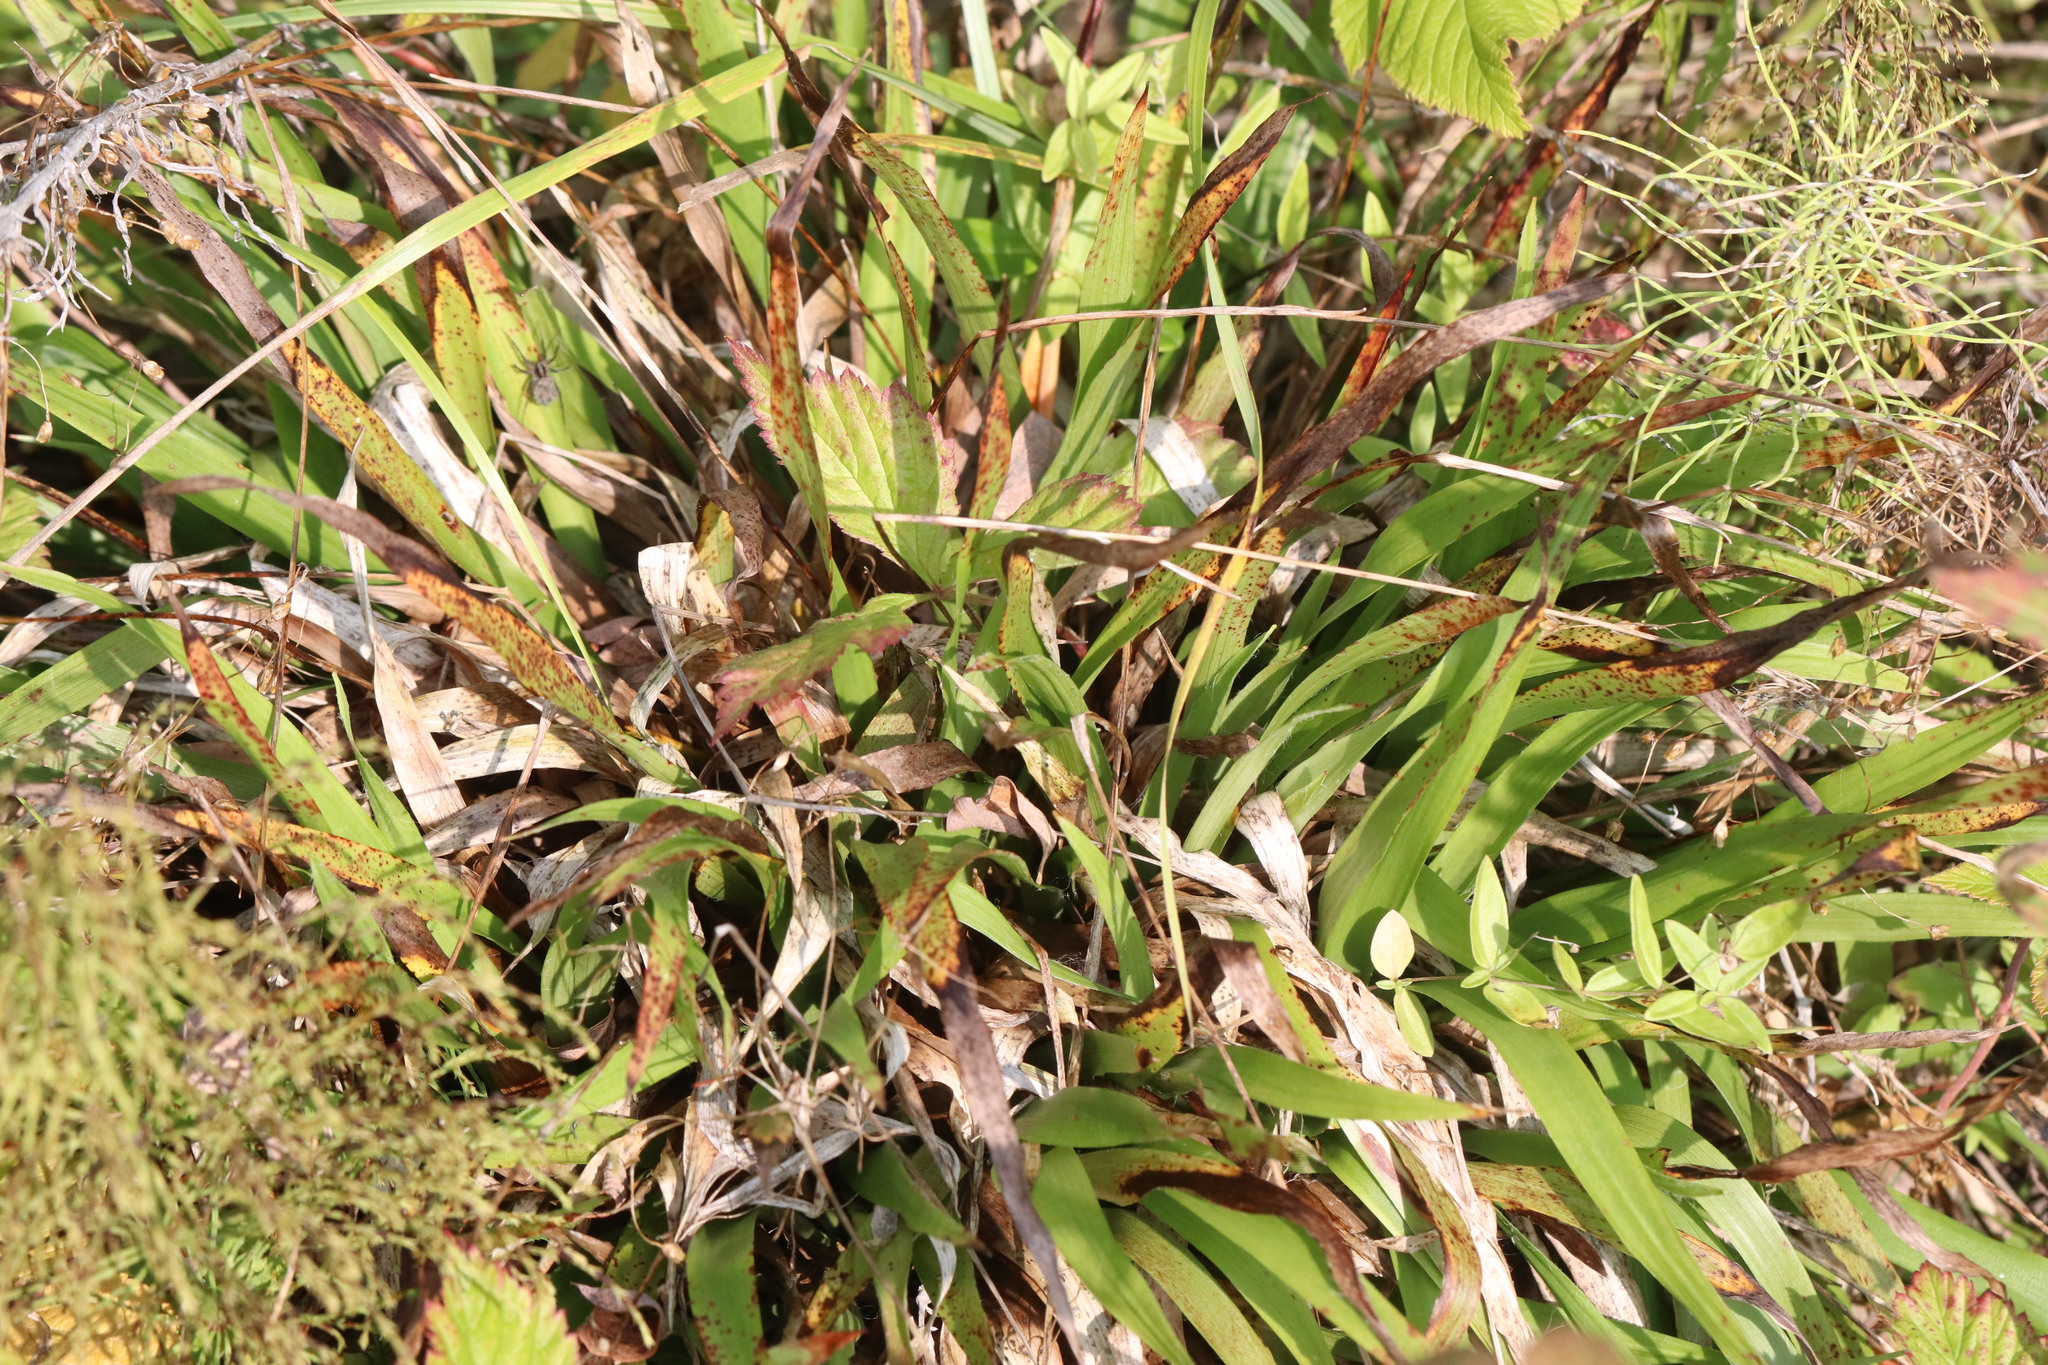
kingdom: Plantae
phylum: Tracheophyta
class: Liliopsida
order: Poales
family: Juncaceae
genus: Luzula
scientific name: Luzula pilosa
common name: Hairy wood-rush
